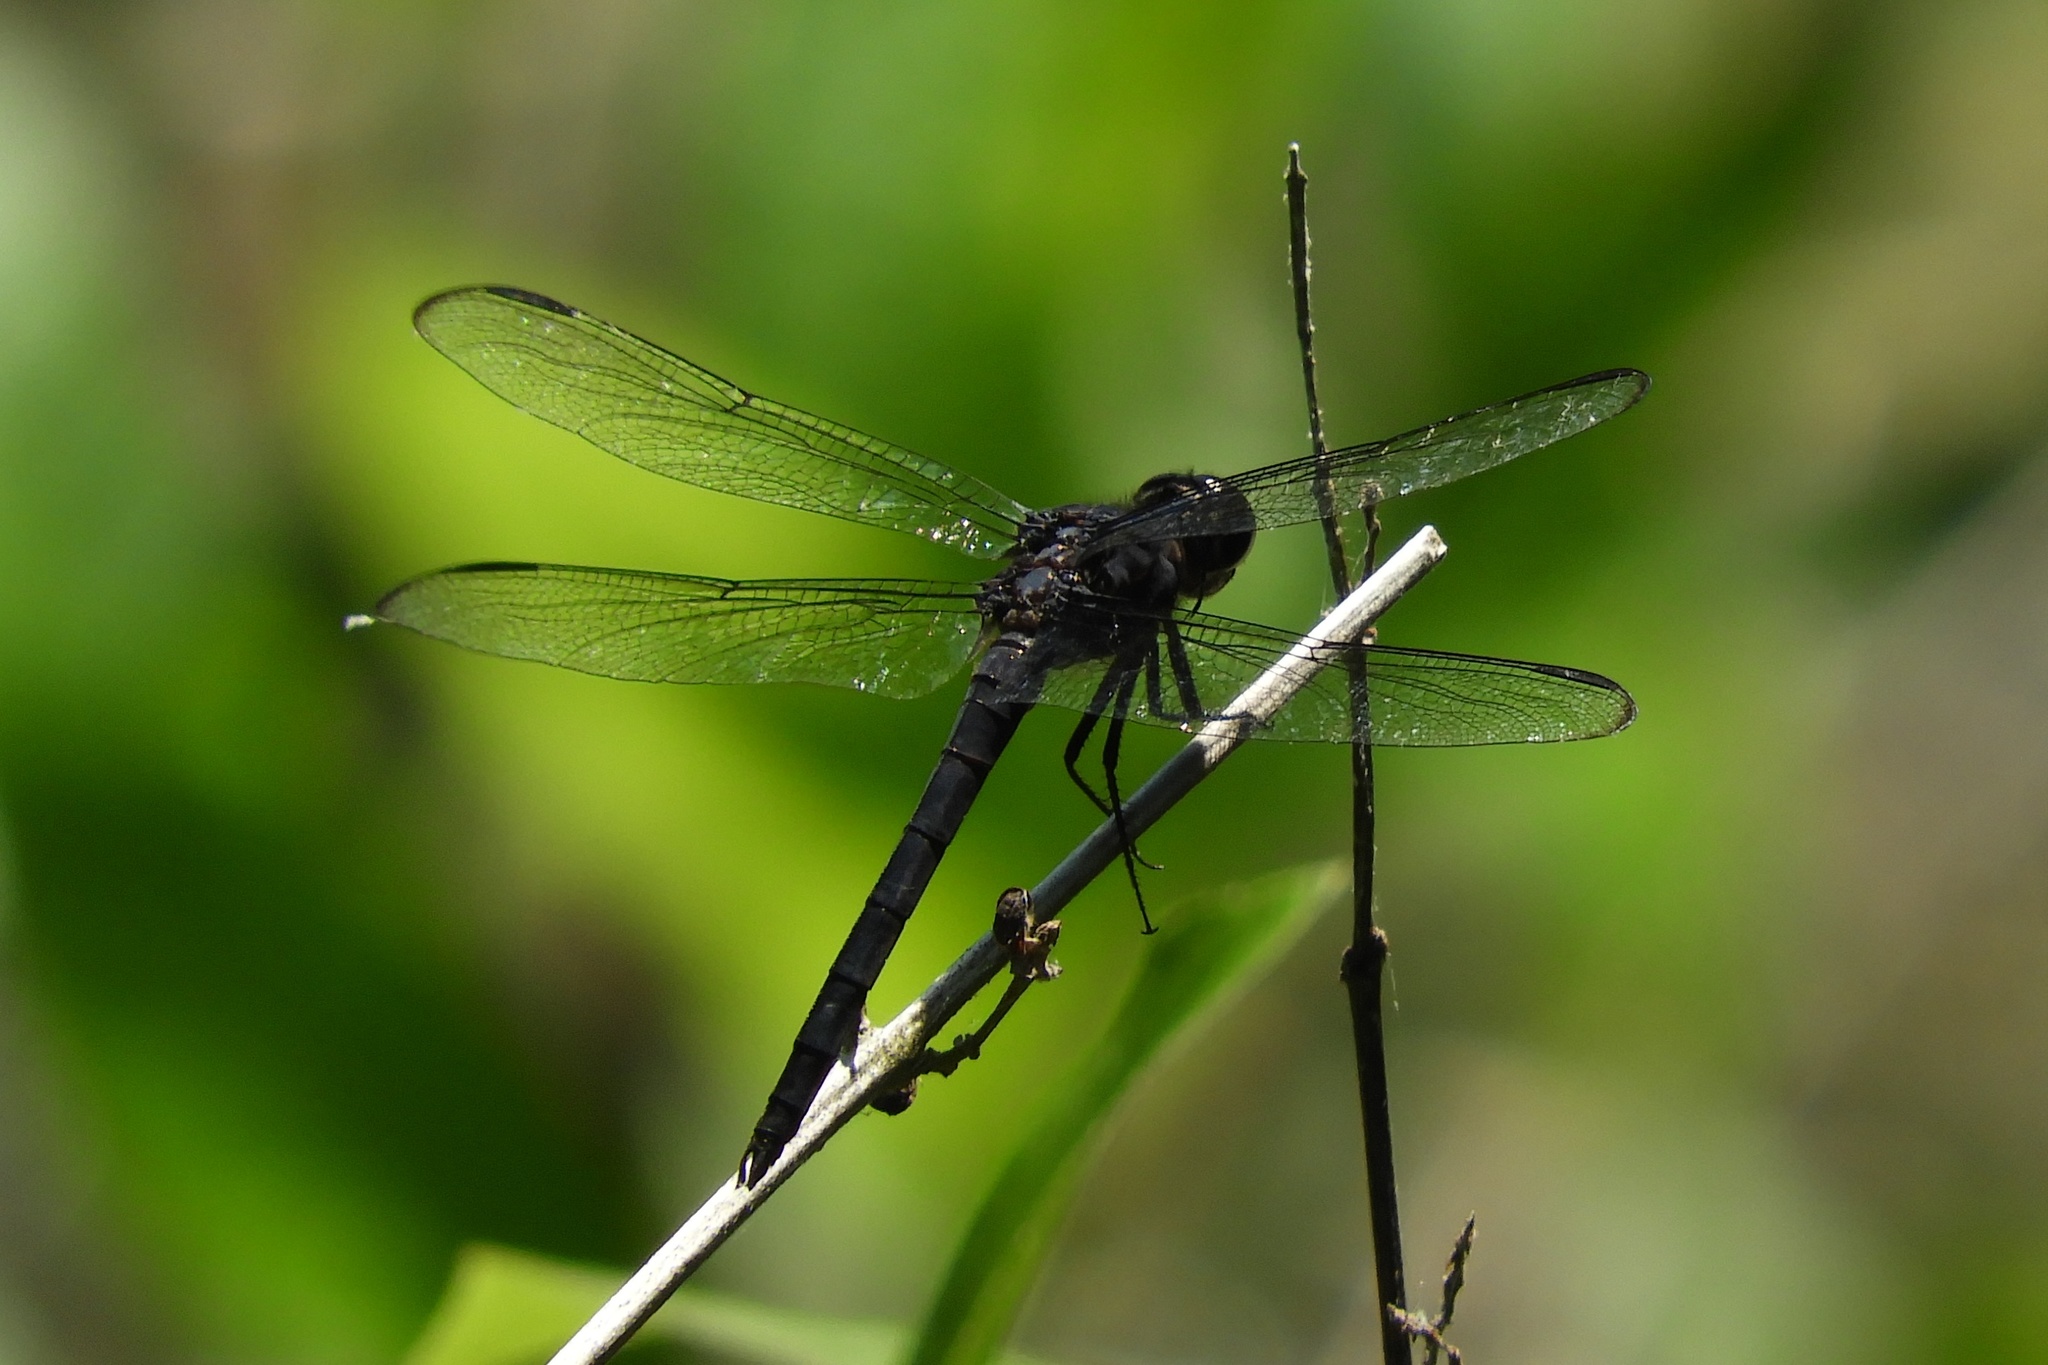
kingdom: Animalia
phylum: Arthropoda
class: Insecta
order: Odonata
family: Libellulidae
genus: Libellula
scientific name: Libellula incesta
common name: Slaty skimmer
